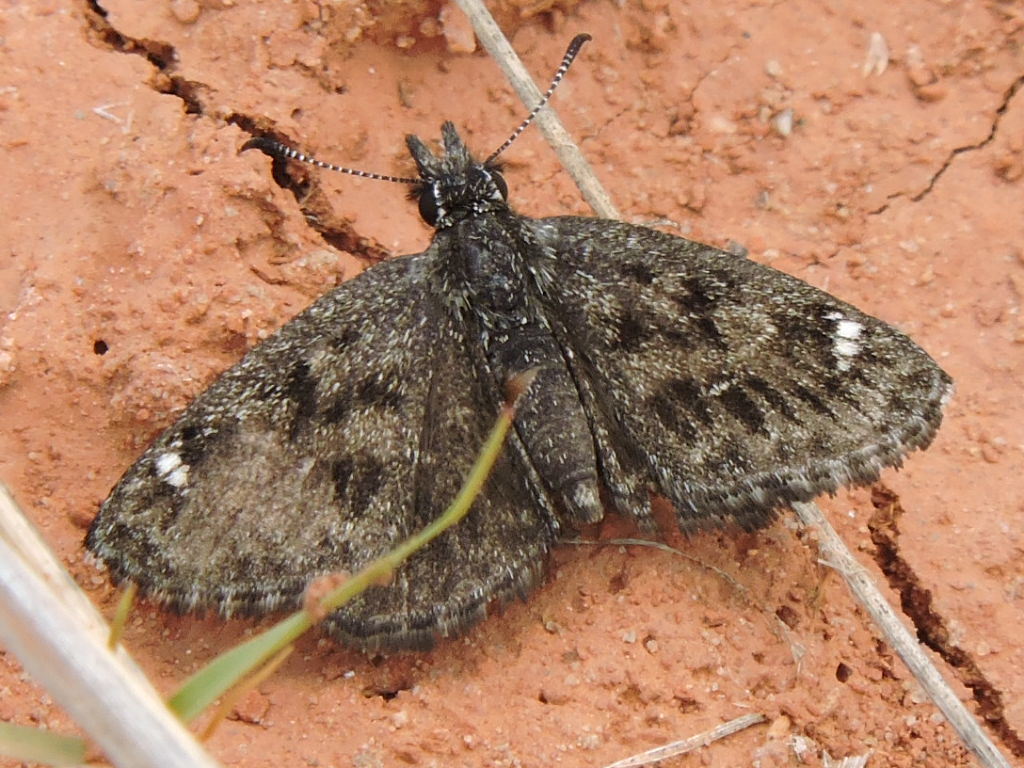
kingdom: Animalia
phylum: Arthropoda
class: Insecta
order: Lepidoptera
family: Hesperiidae
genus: Hesperopsis
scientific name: Hesperopsis alpheus
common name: Saltbush sootywing
